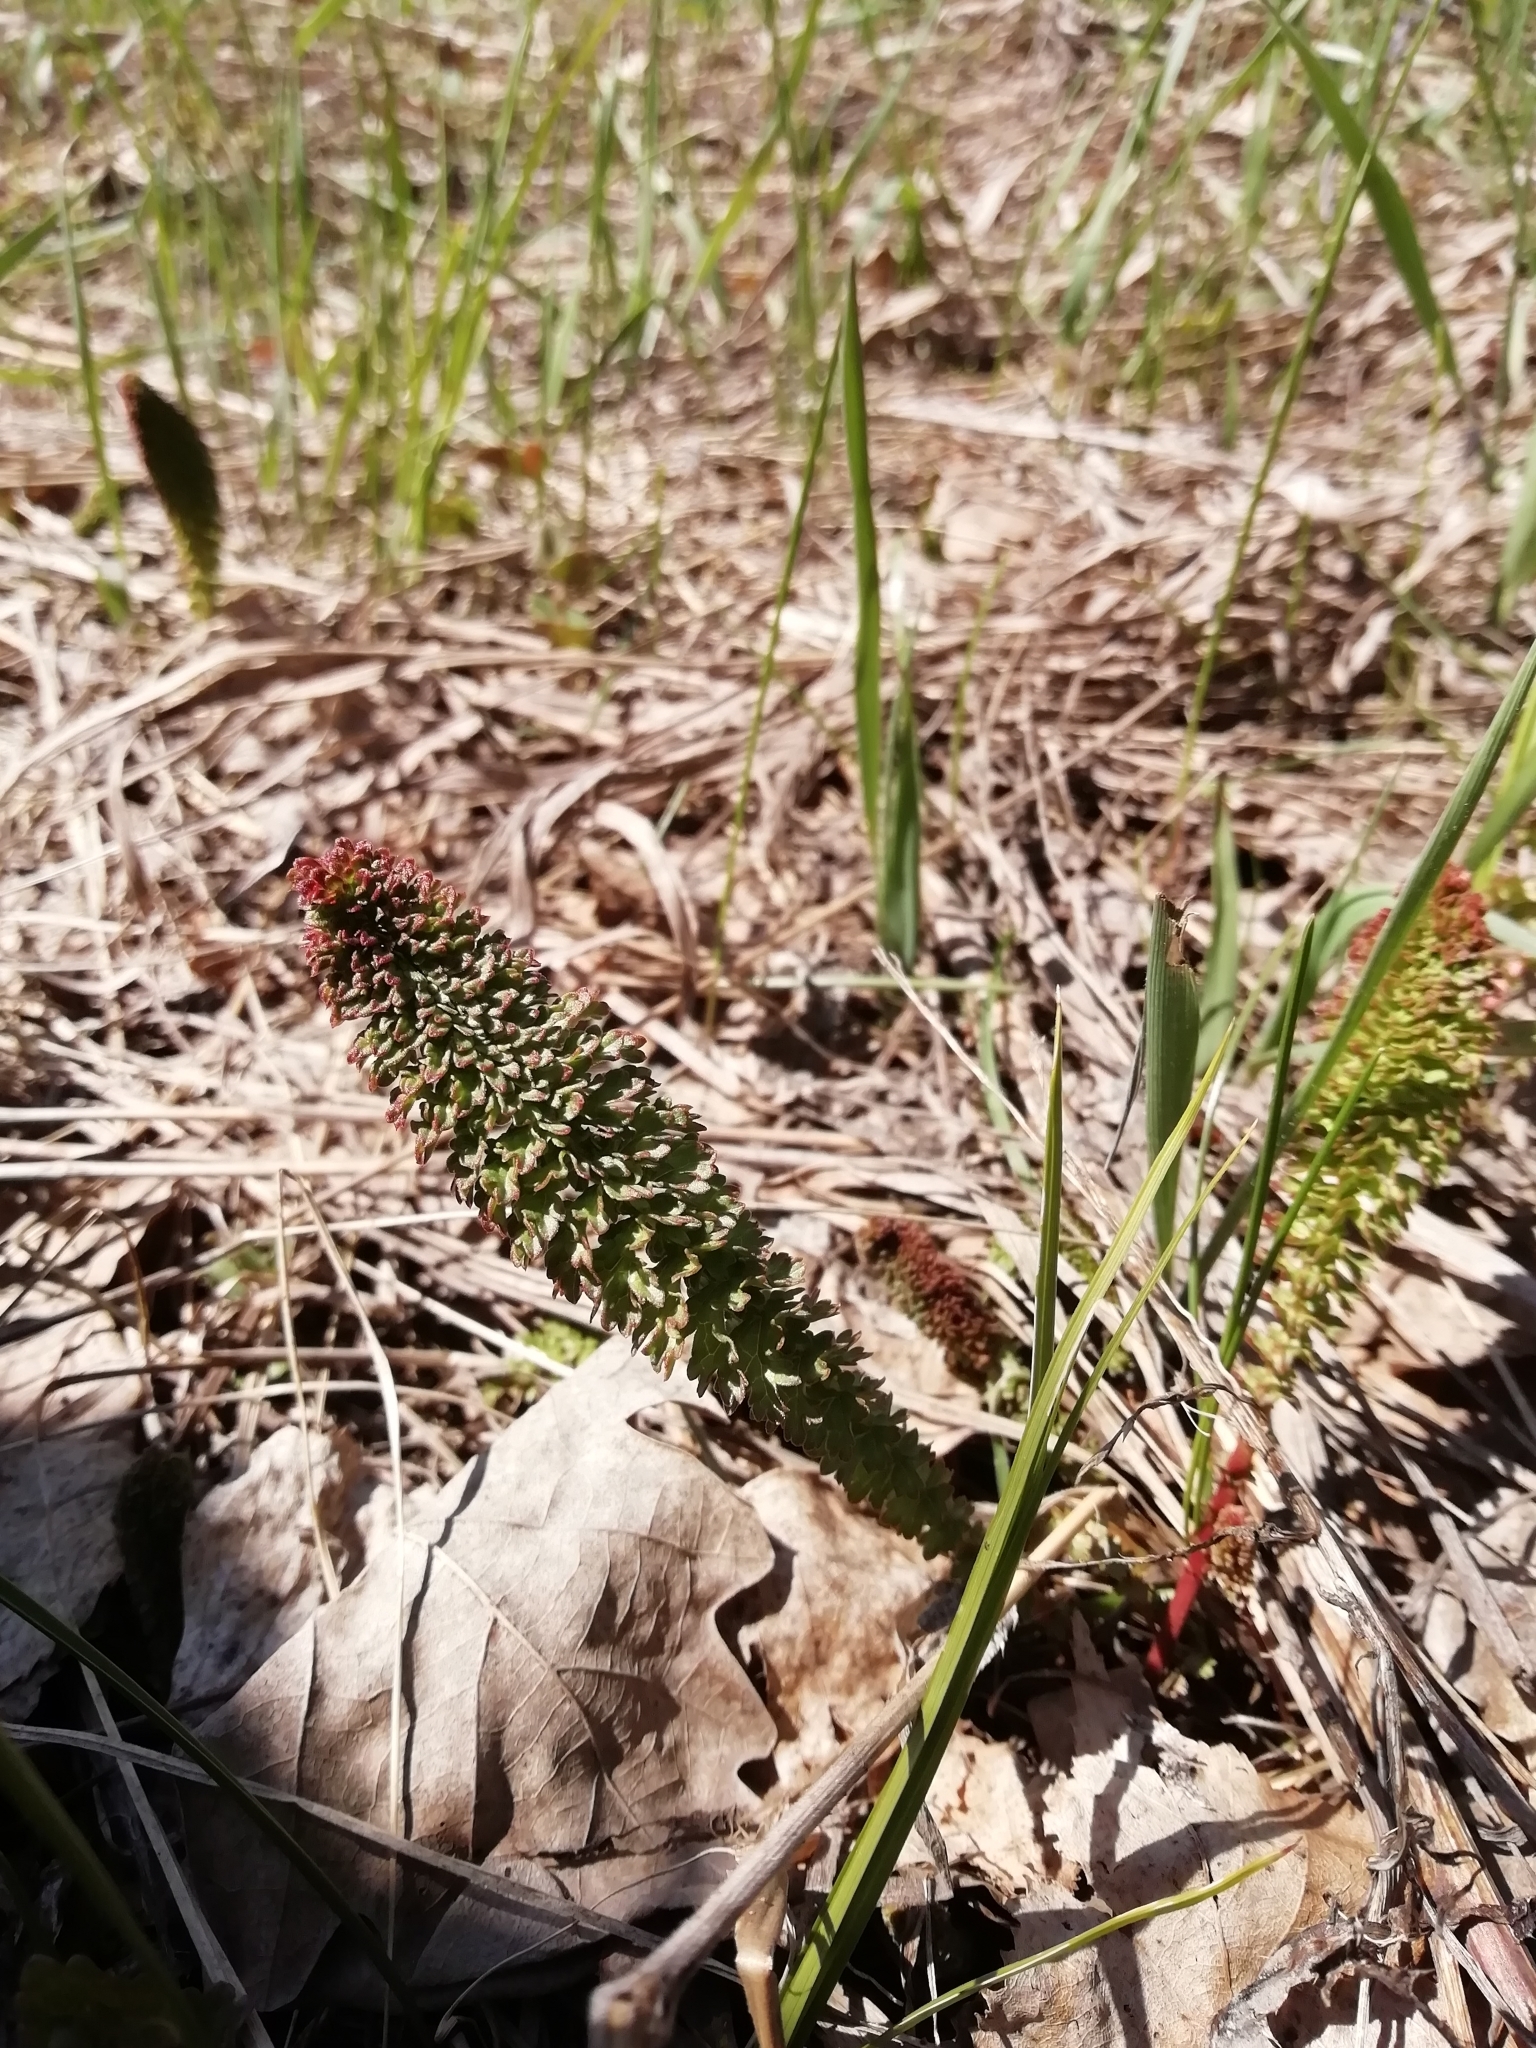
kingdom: Plantae
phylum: Tracheophyta
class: Magnoliopsida
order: Rosales
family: Rosaceae
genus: Filipendula
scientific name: Filipendula vulgaris
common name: Dropwort
